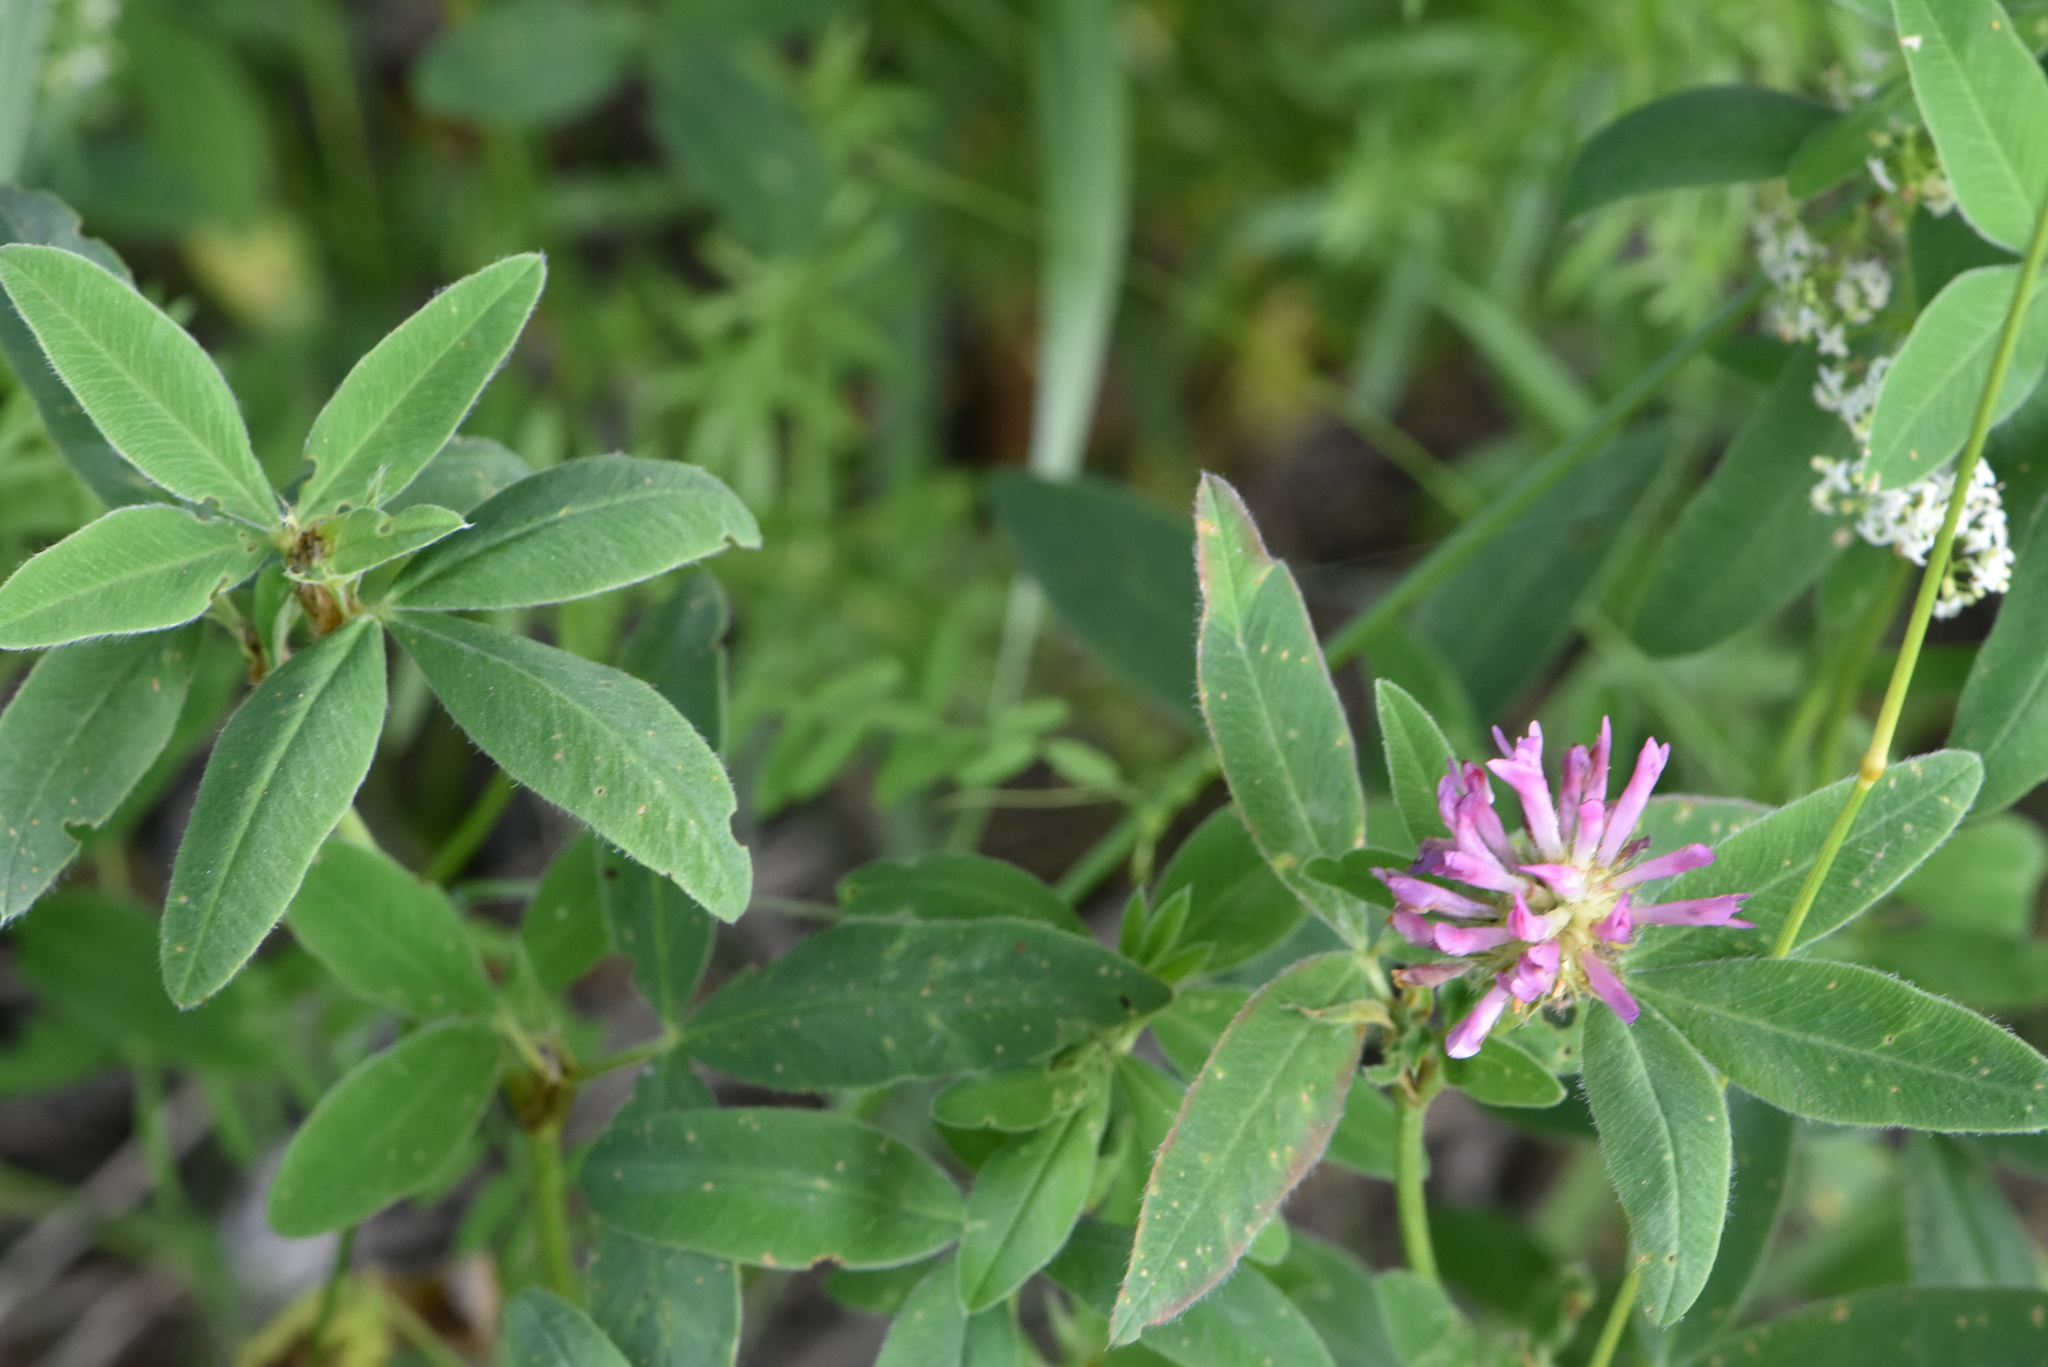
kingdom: Plantae
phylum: Tracheophyta
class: Magnoliopsida
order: Fabales
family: Fabaceae
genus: Trifolium
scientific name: Trifolium medium
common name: Zigzag clover
